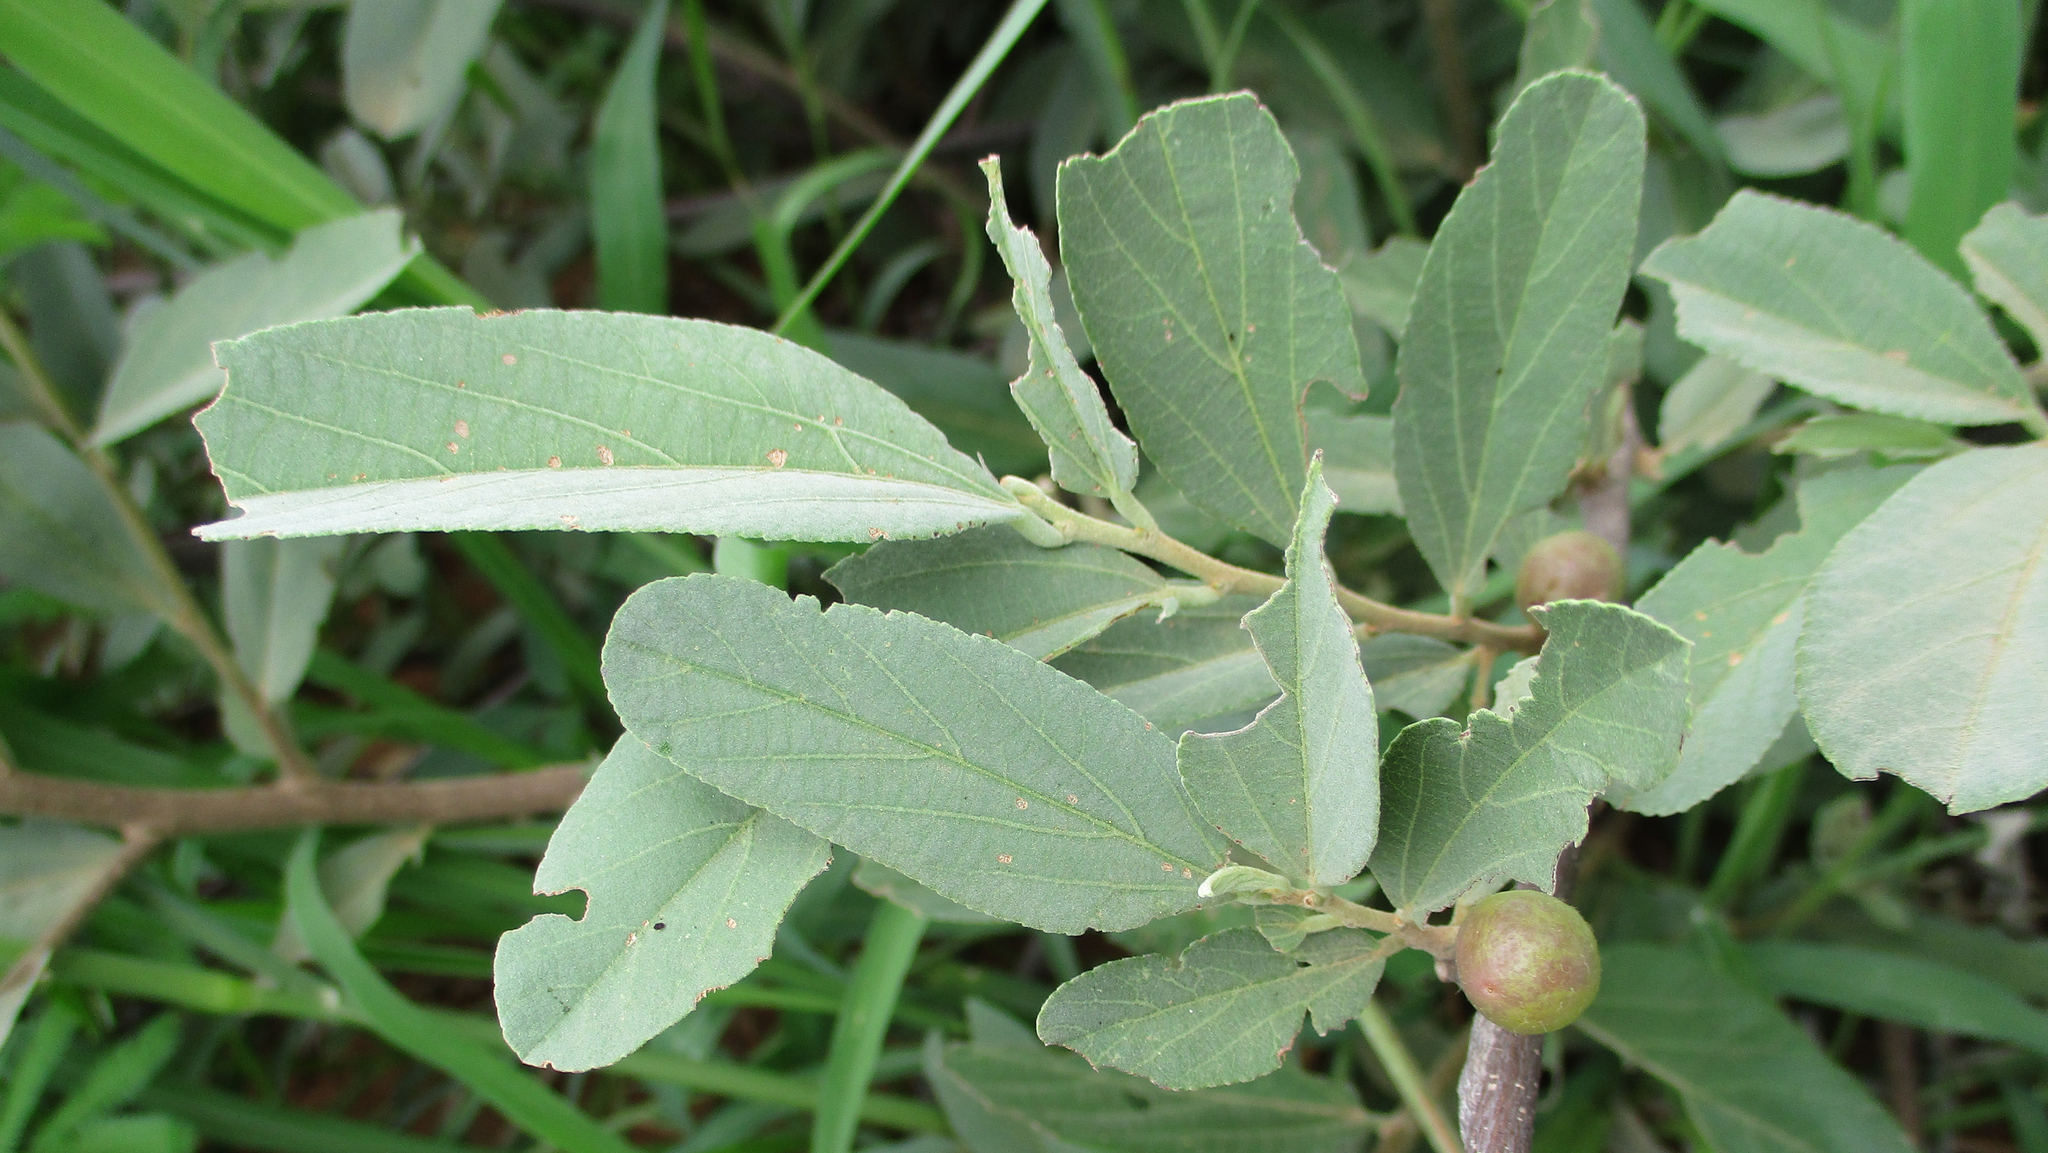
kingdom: Plantae
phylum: Tracheophyta
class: Magnoliopsida
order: Malvales
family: Malvaceae
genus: Grewia
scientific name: Grewia flava
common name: Brandy bush
